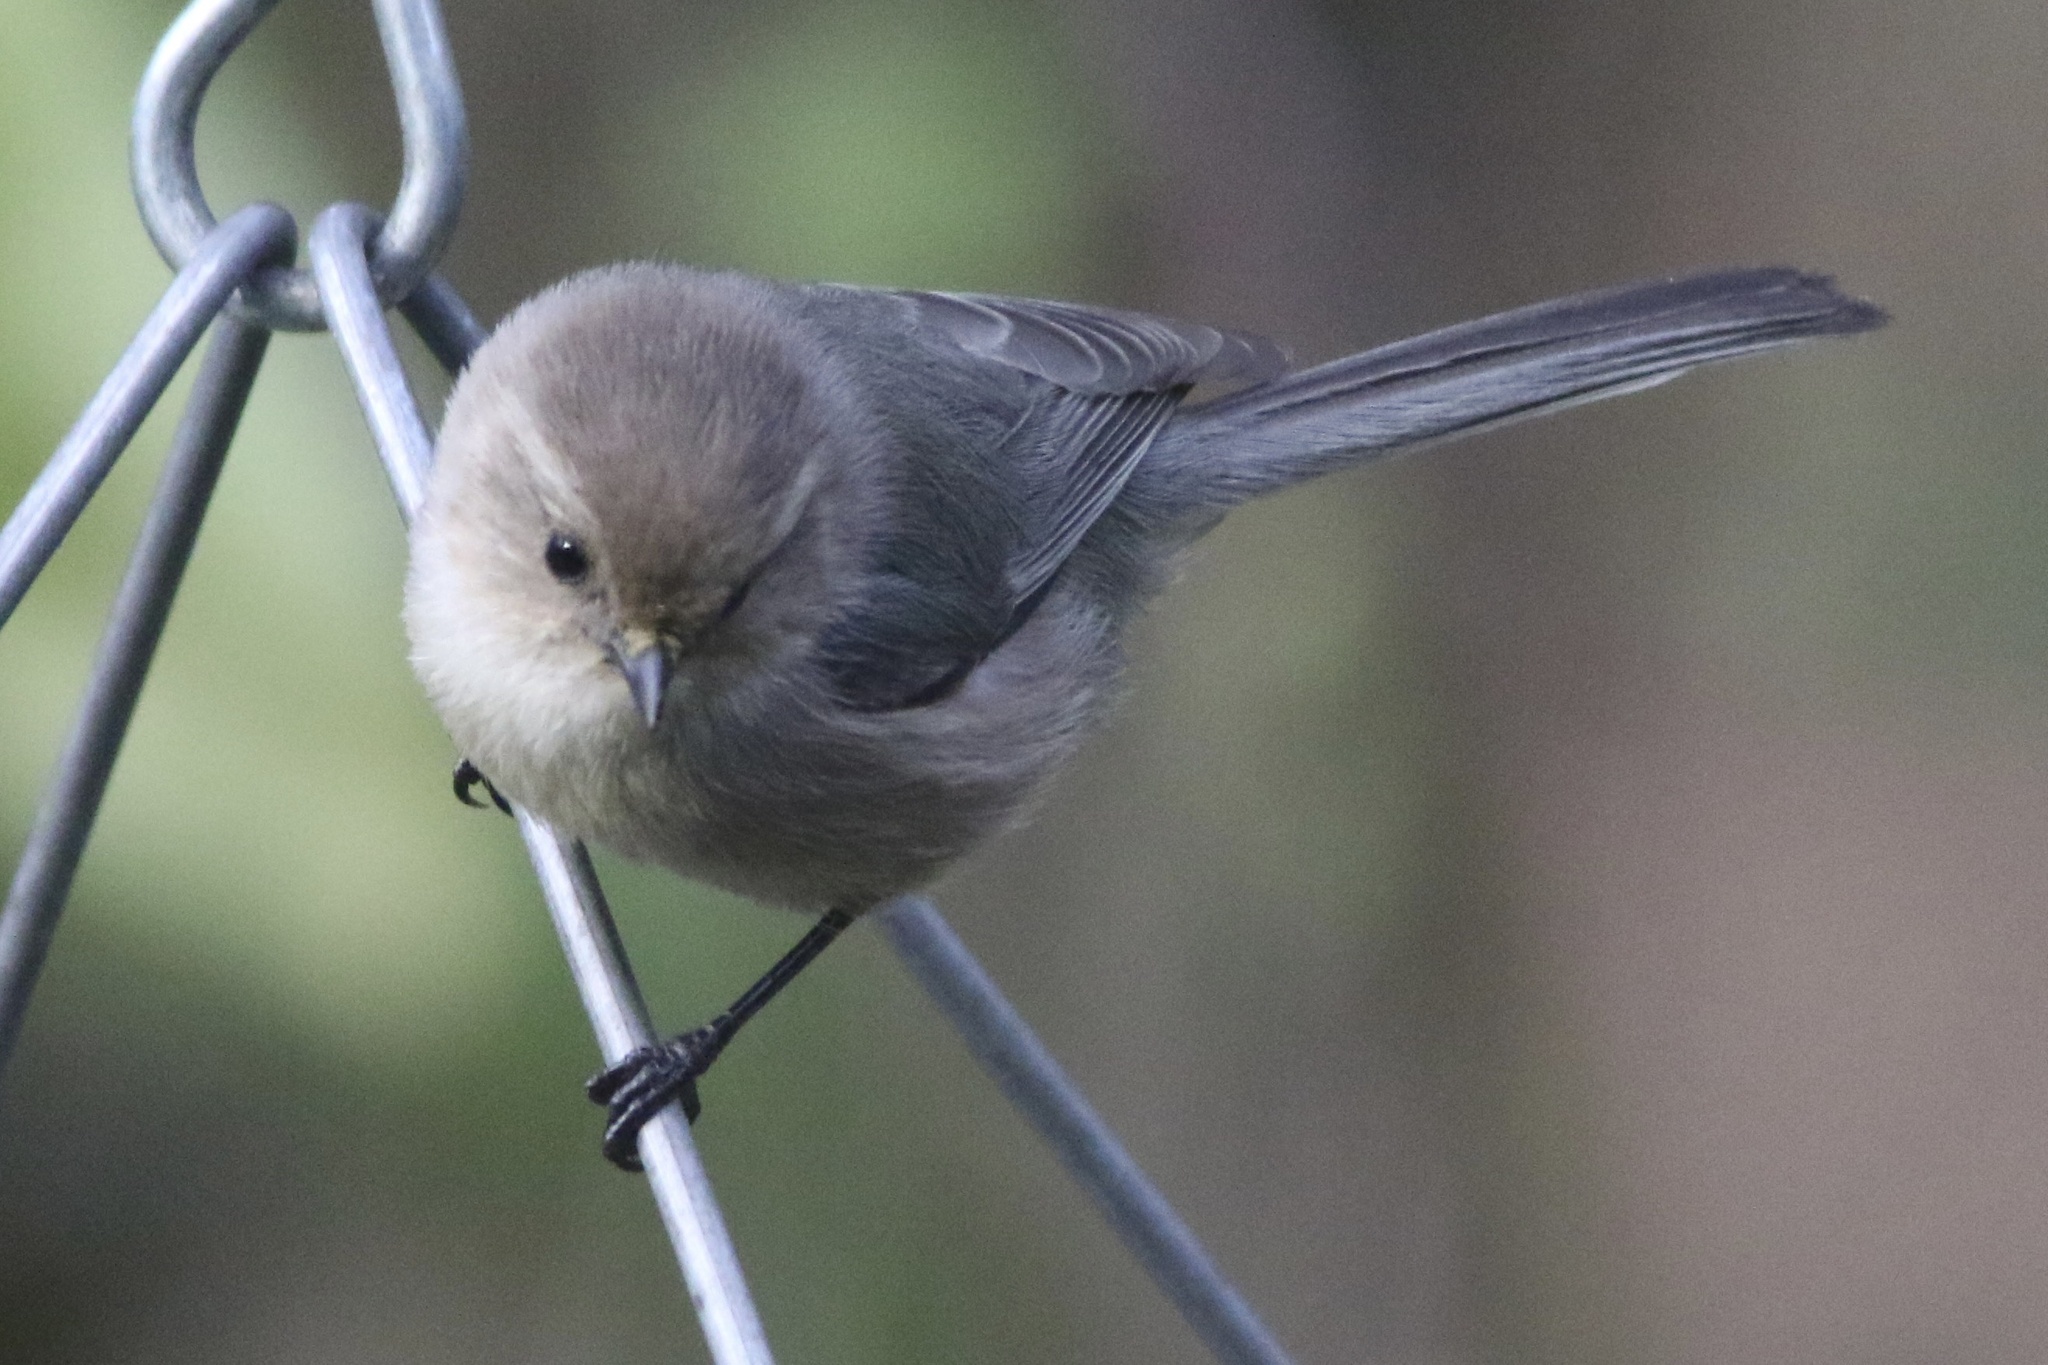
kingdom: Animalia
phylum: Chordata
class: Aves
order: Passeriformes
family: Aegithalidae
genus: Psaltriparus
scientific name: Psaltriparus minimus
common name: American bushtit
